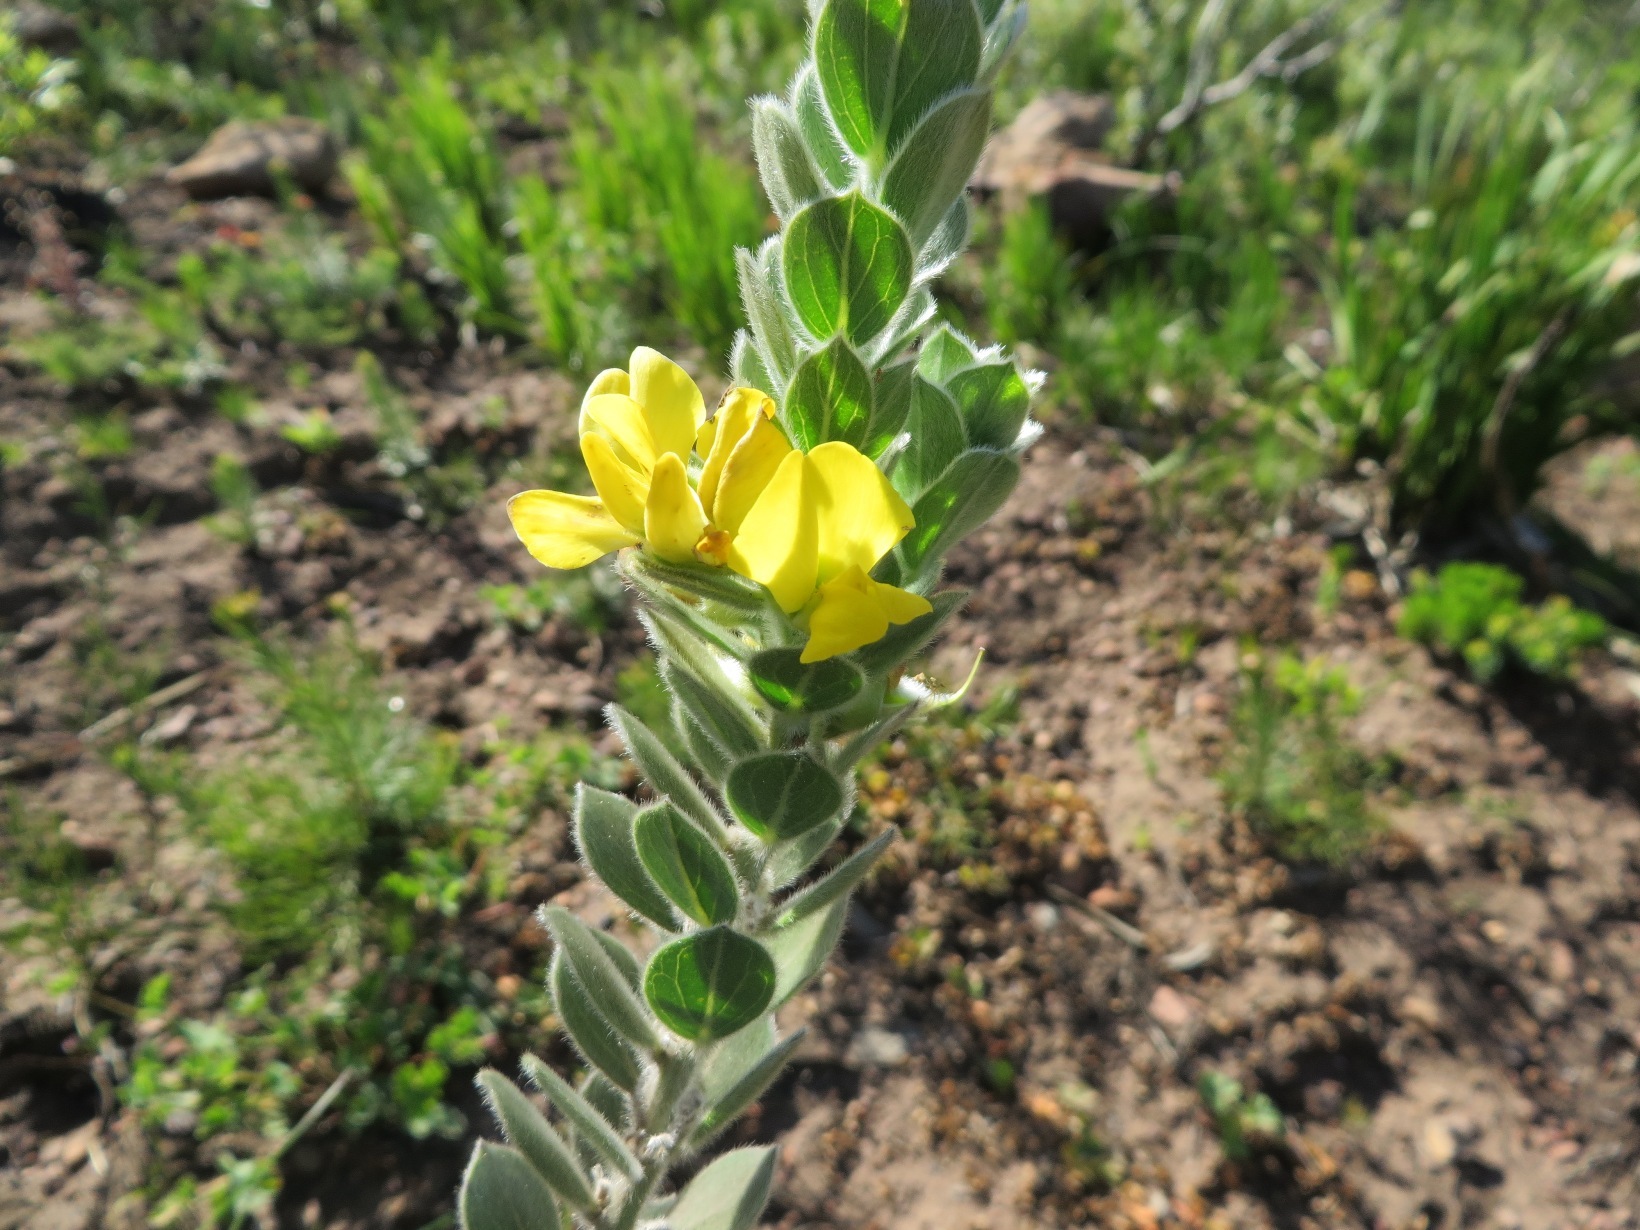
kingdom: Plantae
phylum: Tracheophyta
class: Magnoliopsida
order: Fabales
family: Fabaceae
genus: Xiphotheca
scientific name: Xiphotheca tecta
